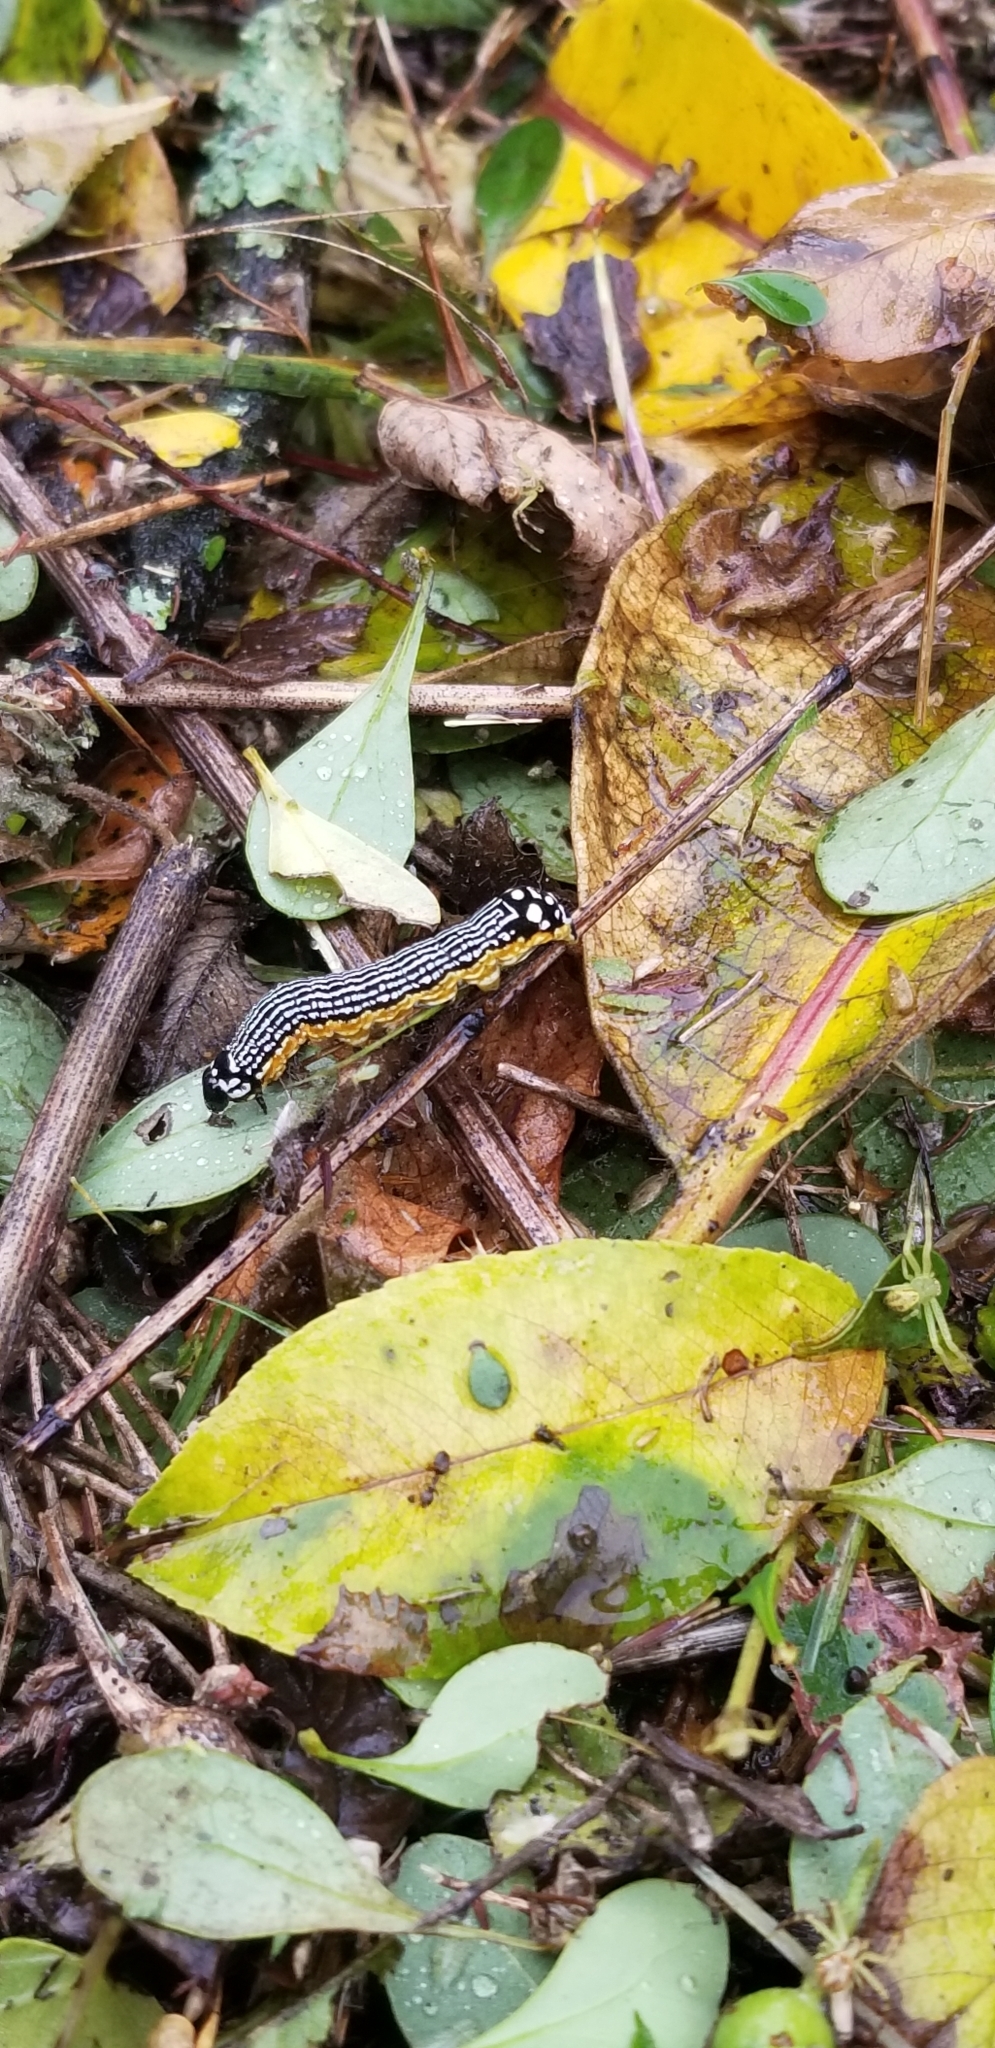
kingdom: Animalia
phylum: Arthropoda
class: Insecta
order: Lepidoptera
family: Noctuidae
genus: Phosphila
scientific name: Phosphila turbulenta
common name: Turbulent phosphila moth
